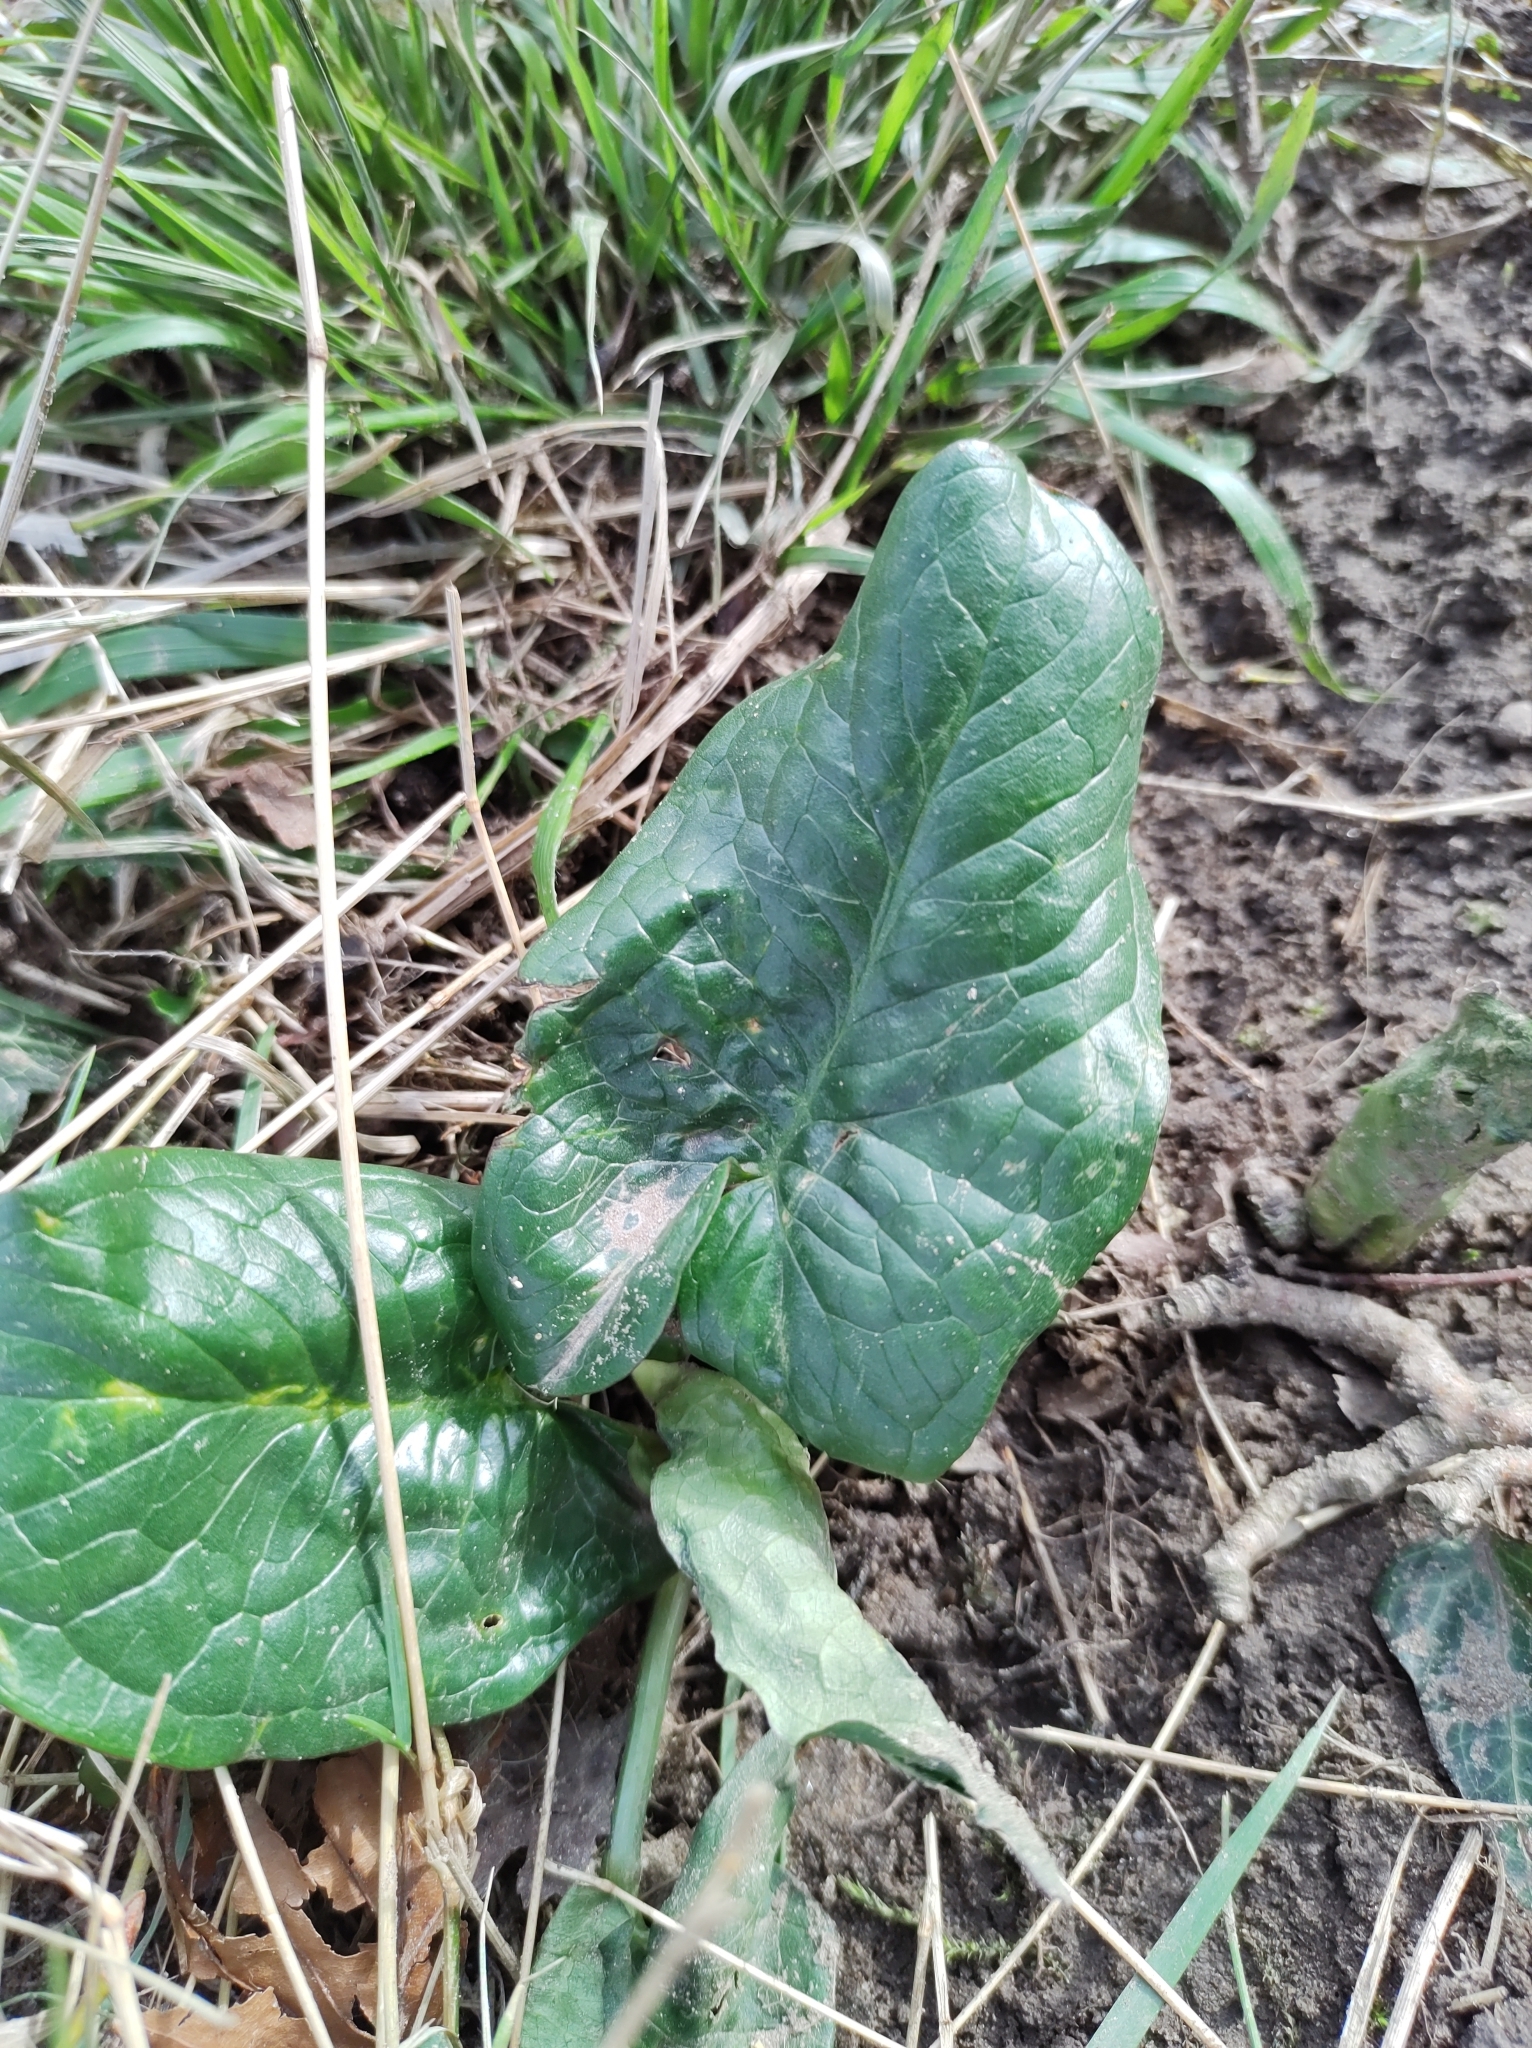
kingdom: Plantae
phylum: Tracheophyta
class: Liliopsida
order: Alismatales
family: Araceae
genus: Arum
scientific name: Arum maculatum
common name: Lords-and-ladies
